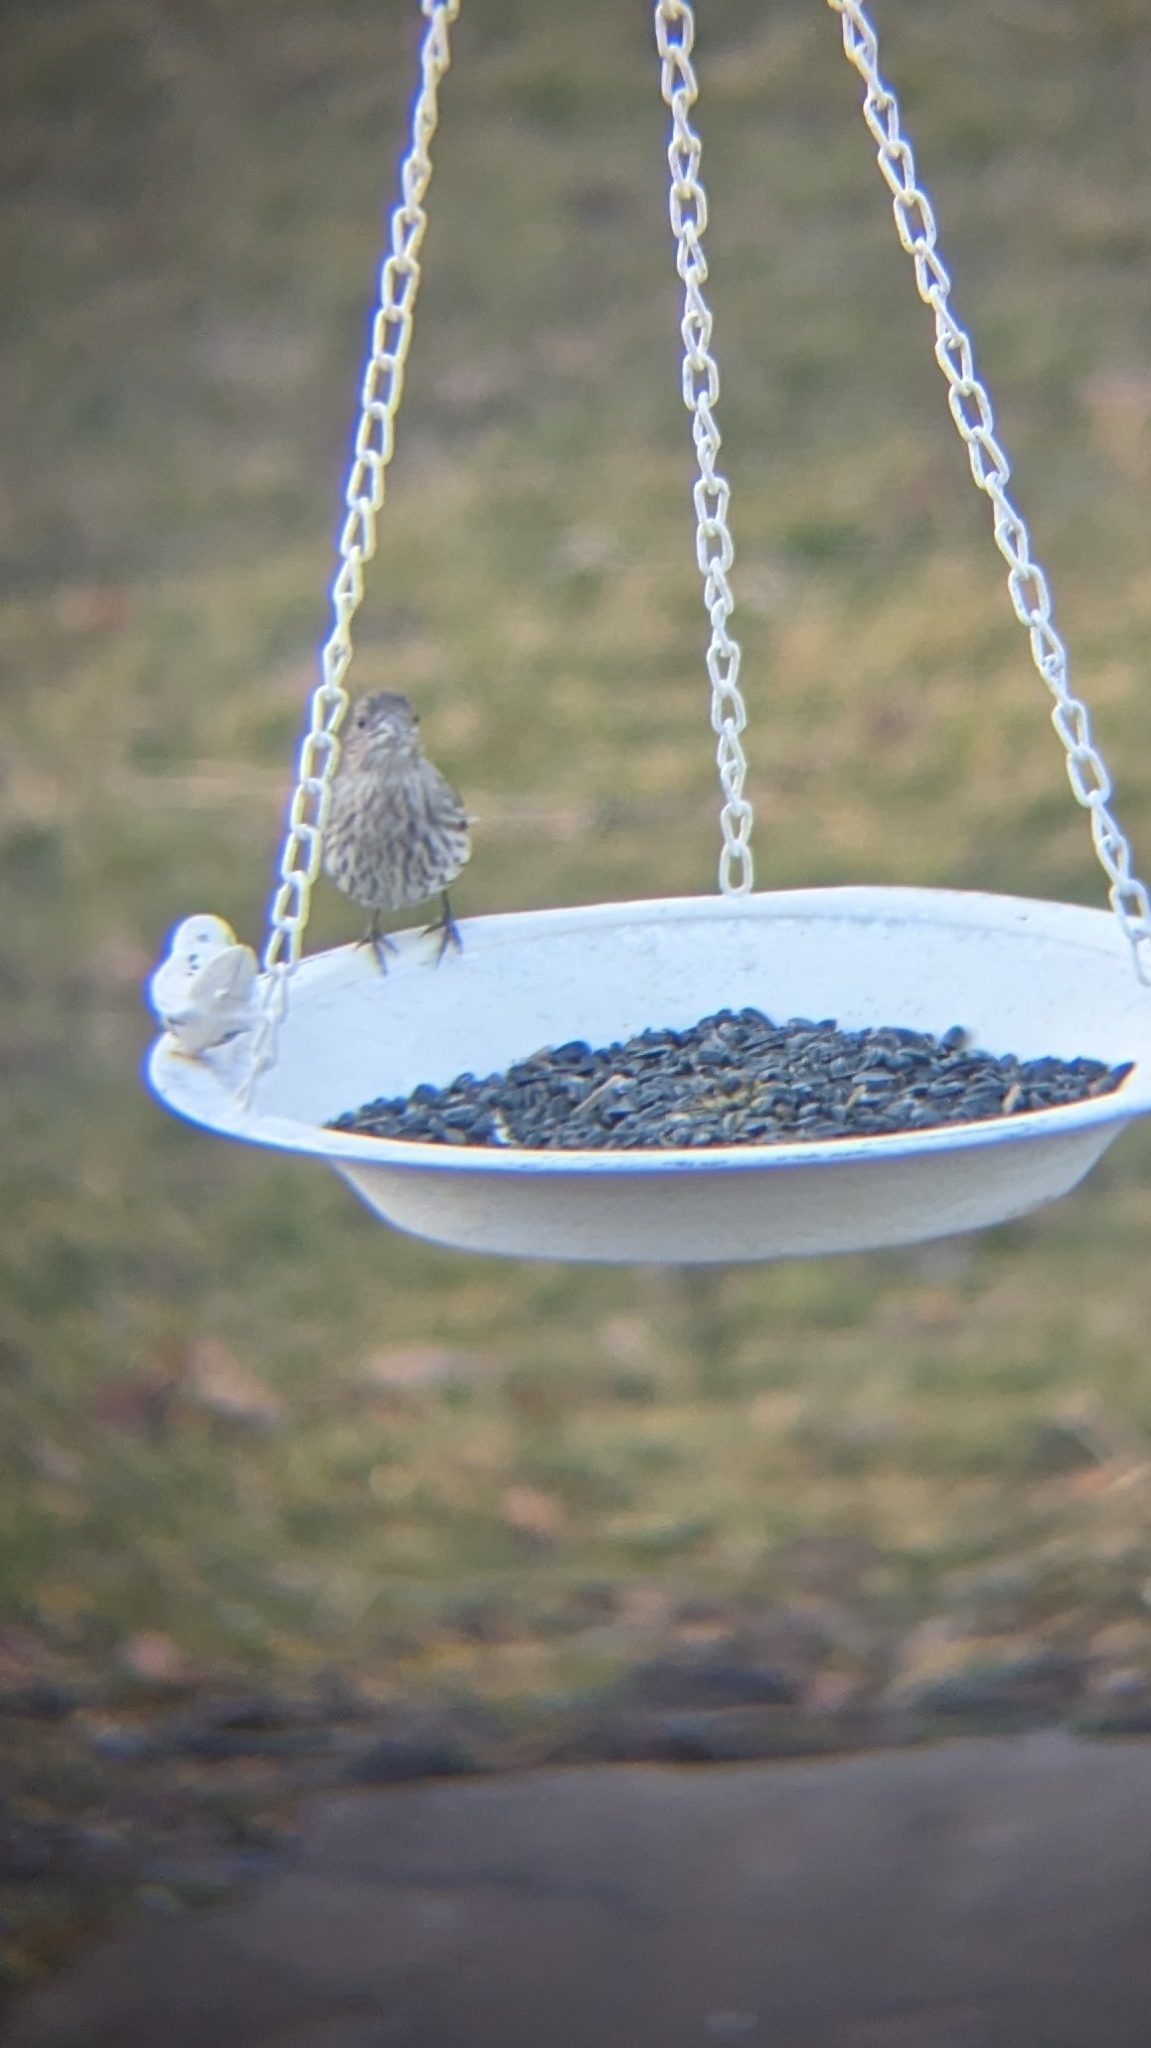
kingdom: Animalia
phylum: Chordata
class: Aves
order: Passeriformes
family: Fringillidae
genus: Haemorhous
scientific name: Haemorhous mexicanus
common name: House finch
